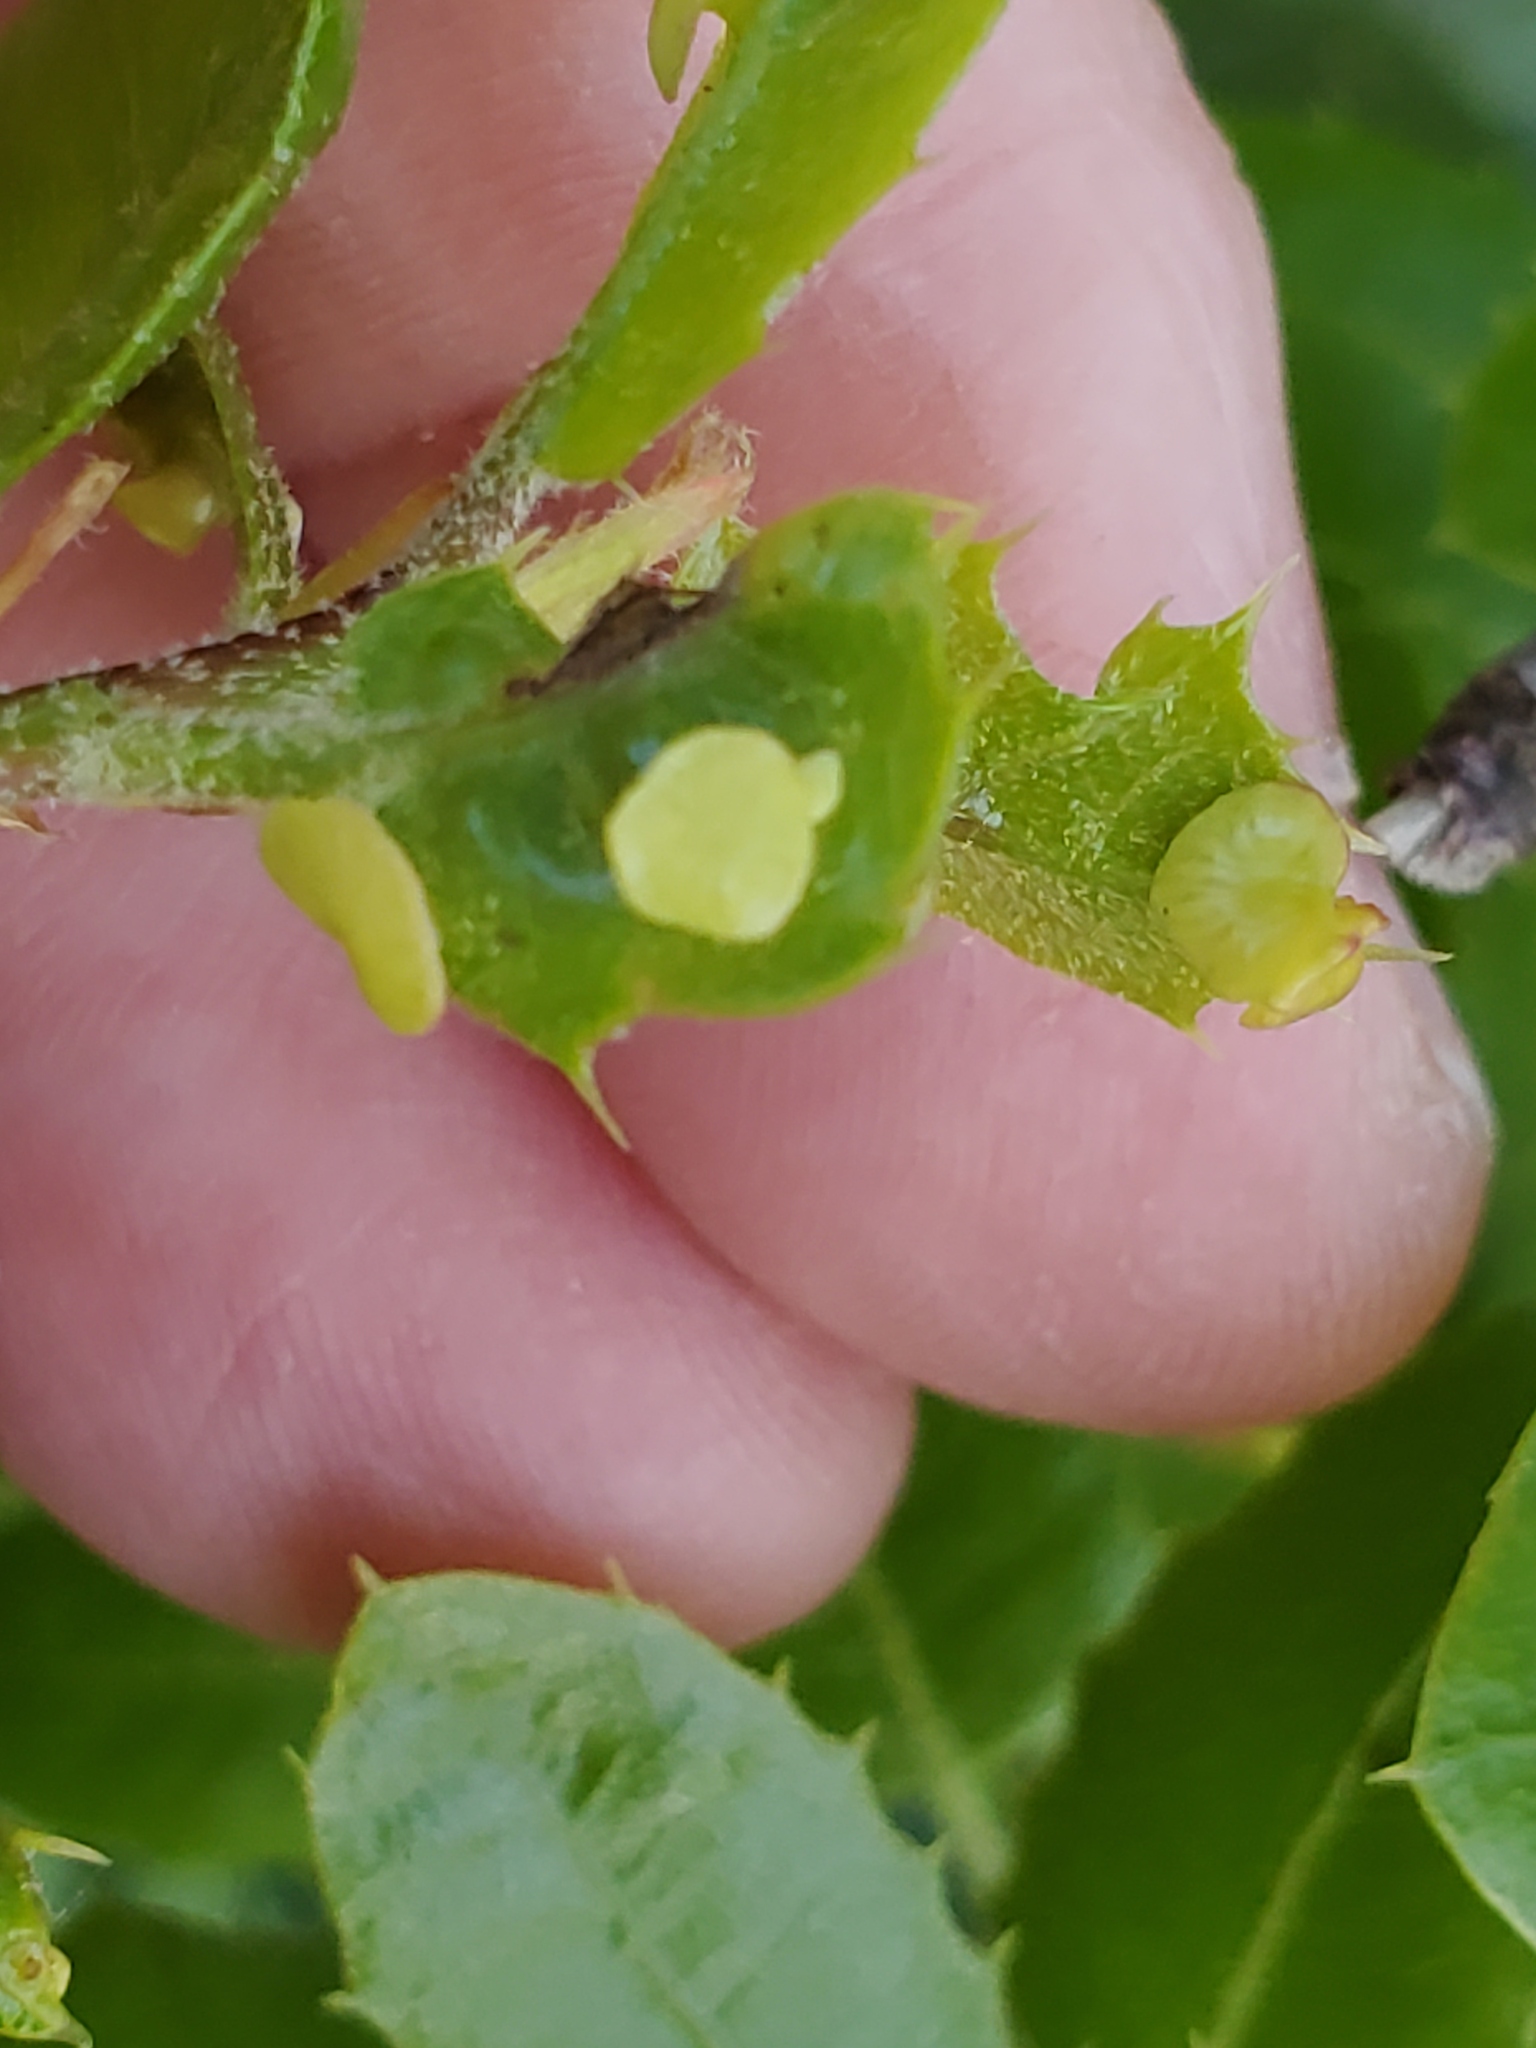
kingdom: Animalia
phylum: Arthropoda
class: Insecta
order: Hymenoptera
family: Cynipidae
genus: Amphibolips
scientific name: Amphibolips quercuspomiformis
